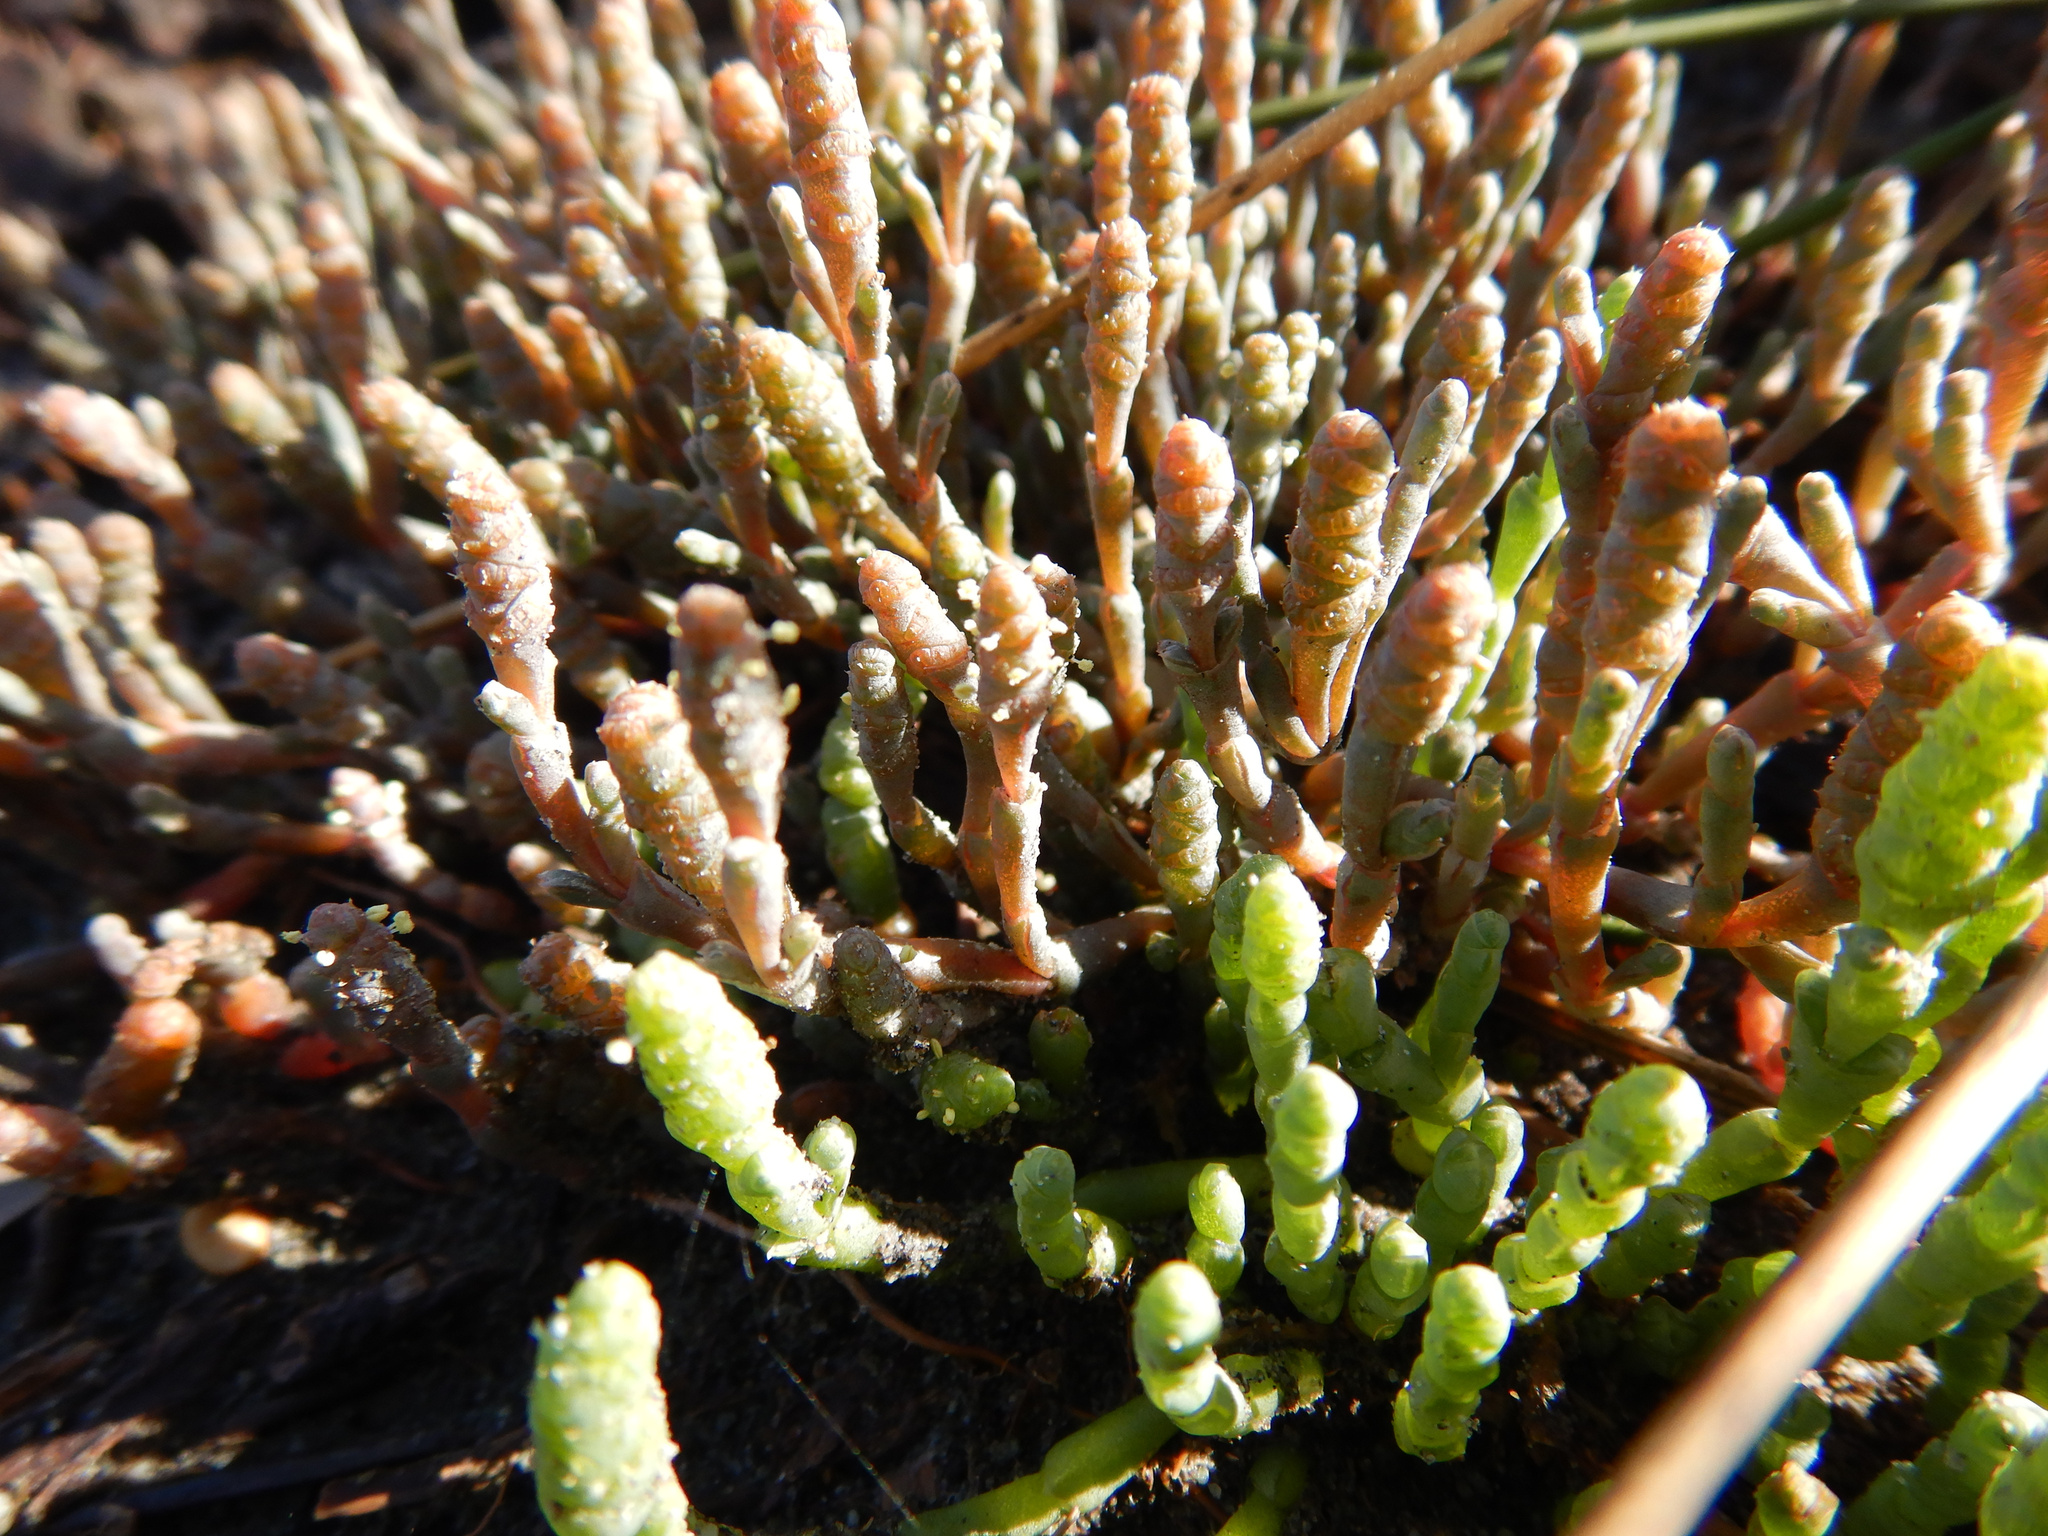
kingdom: Plantae
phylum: Tracheophyta
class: Magnoliopsida
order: Caryophyllales
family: Amaranthaceae
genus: Salicornia
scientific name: Salicornia quinqueflora
